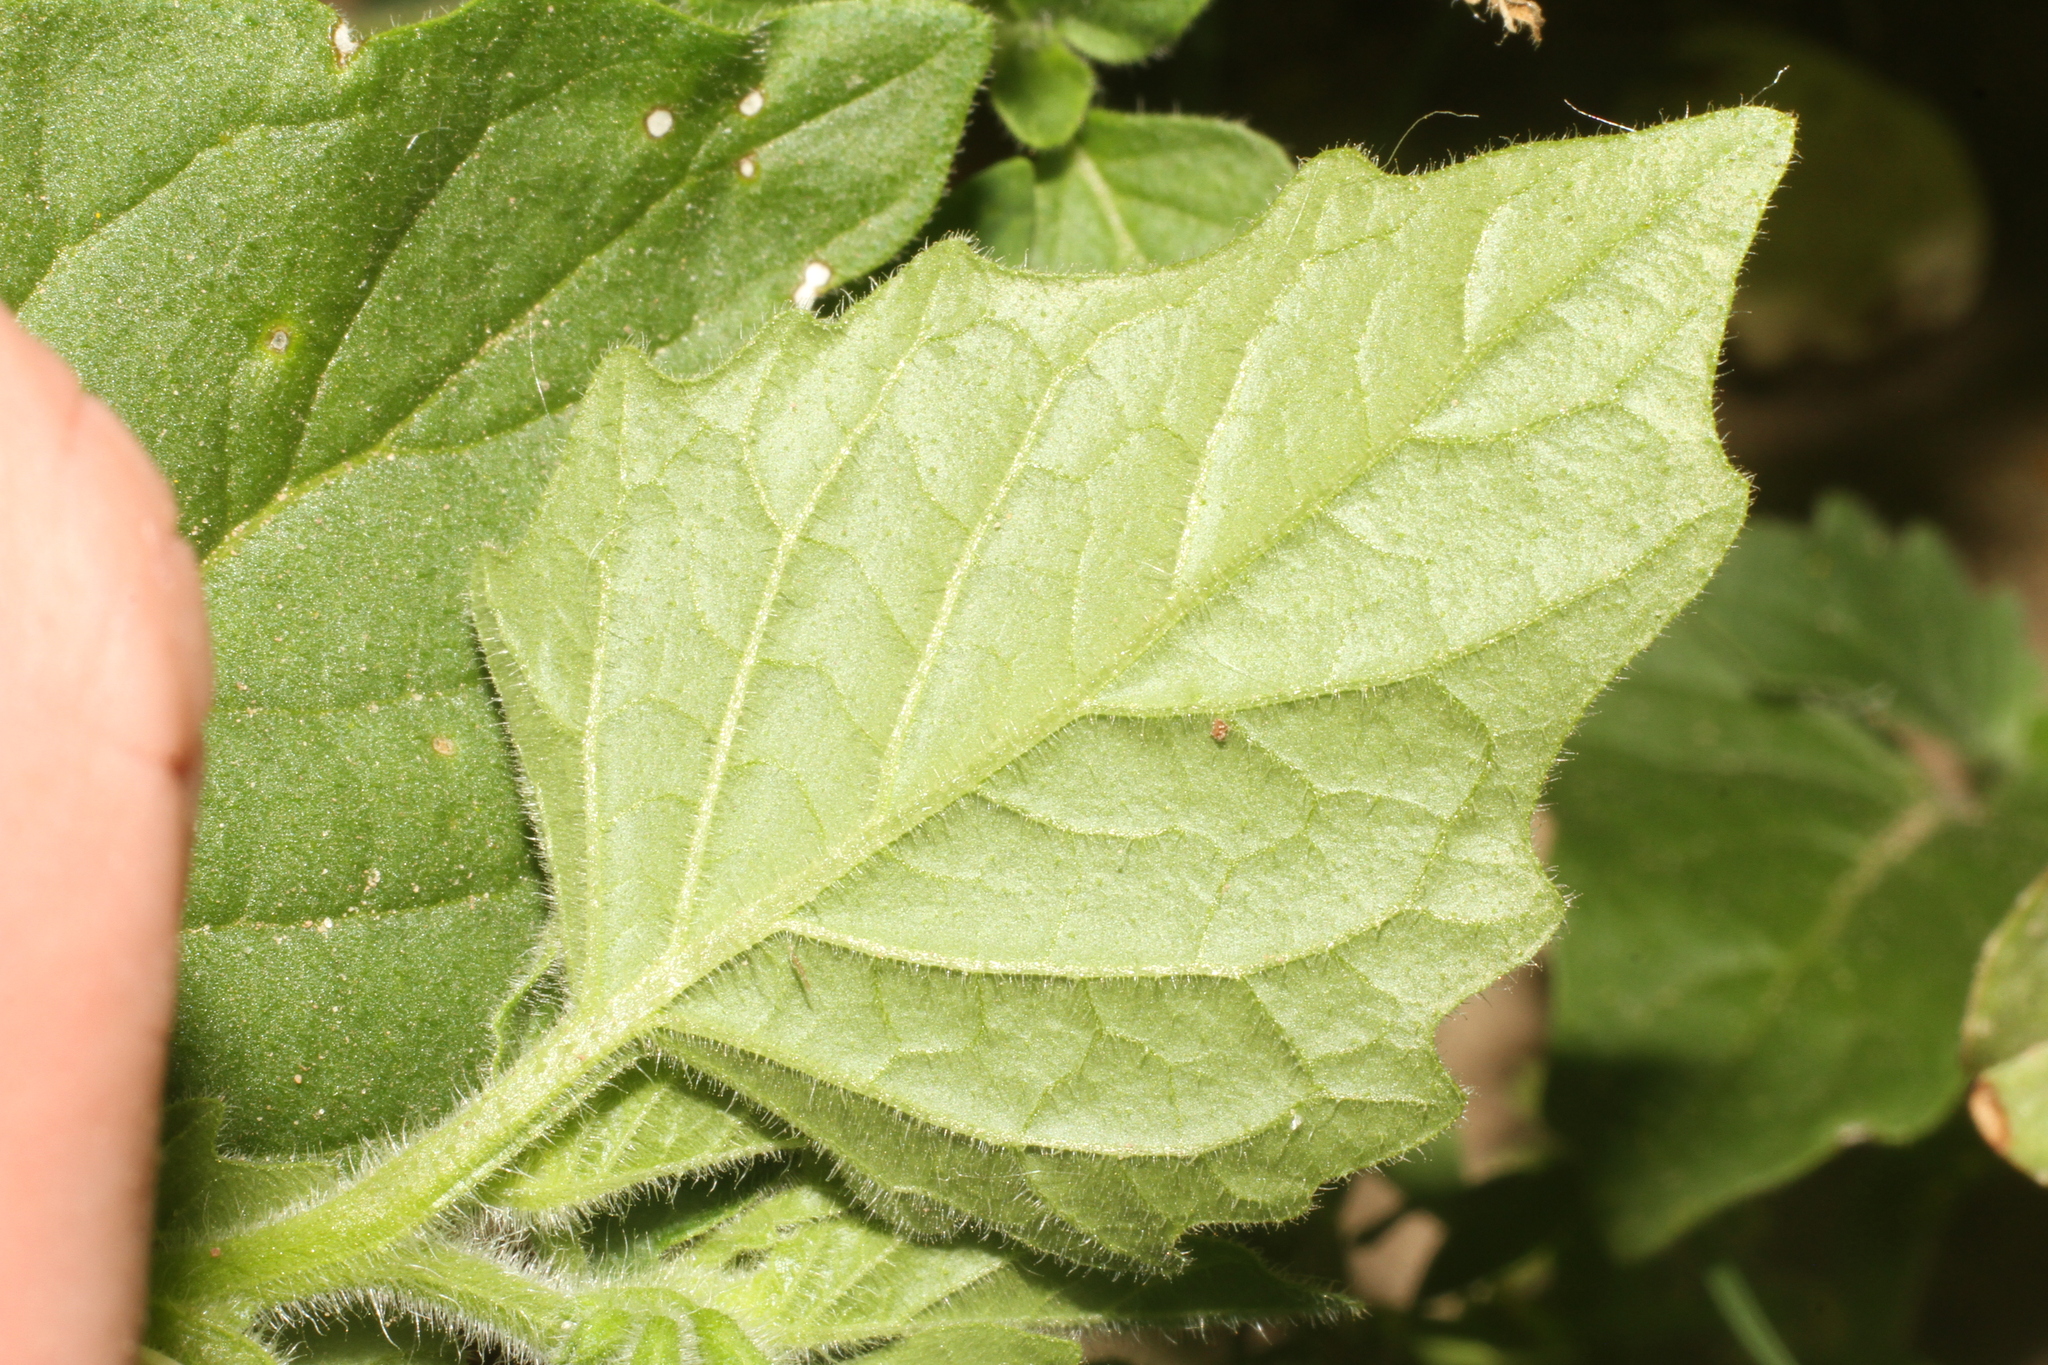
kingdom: Plantae
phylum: Tracheophyta
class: Magnoliopsida
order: Solanales
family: Solanaceae
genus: Solanum
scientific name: Solanum nitidibaccatum
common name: Hairy nightshade
